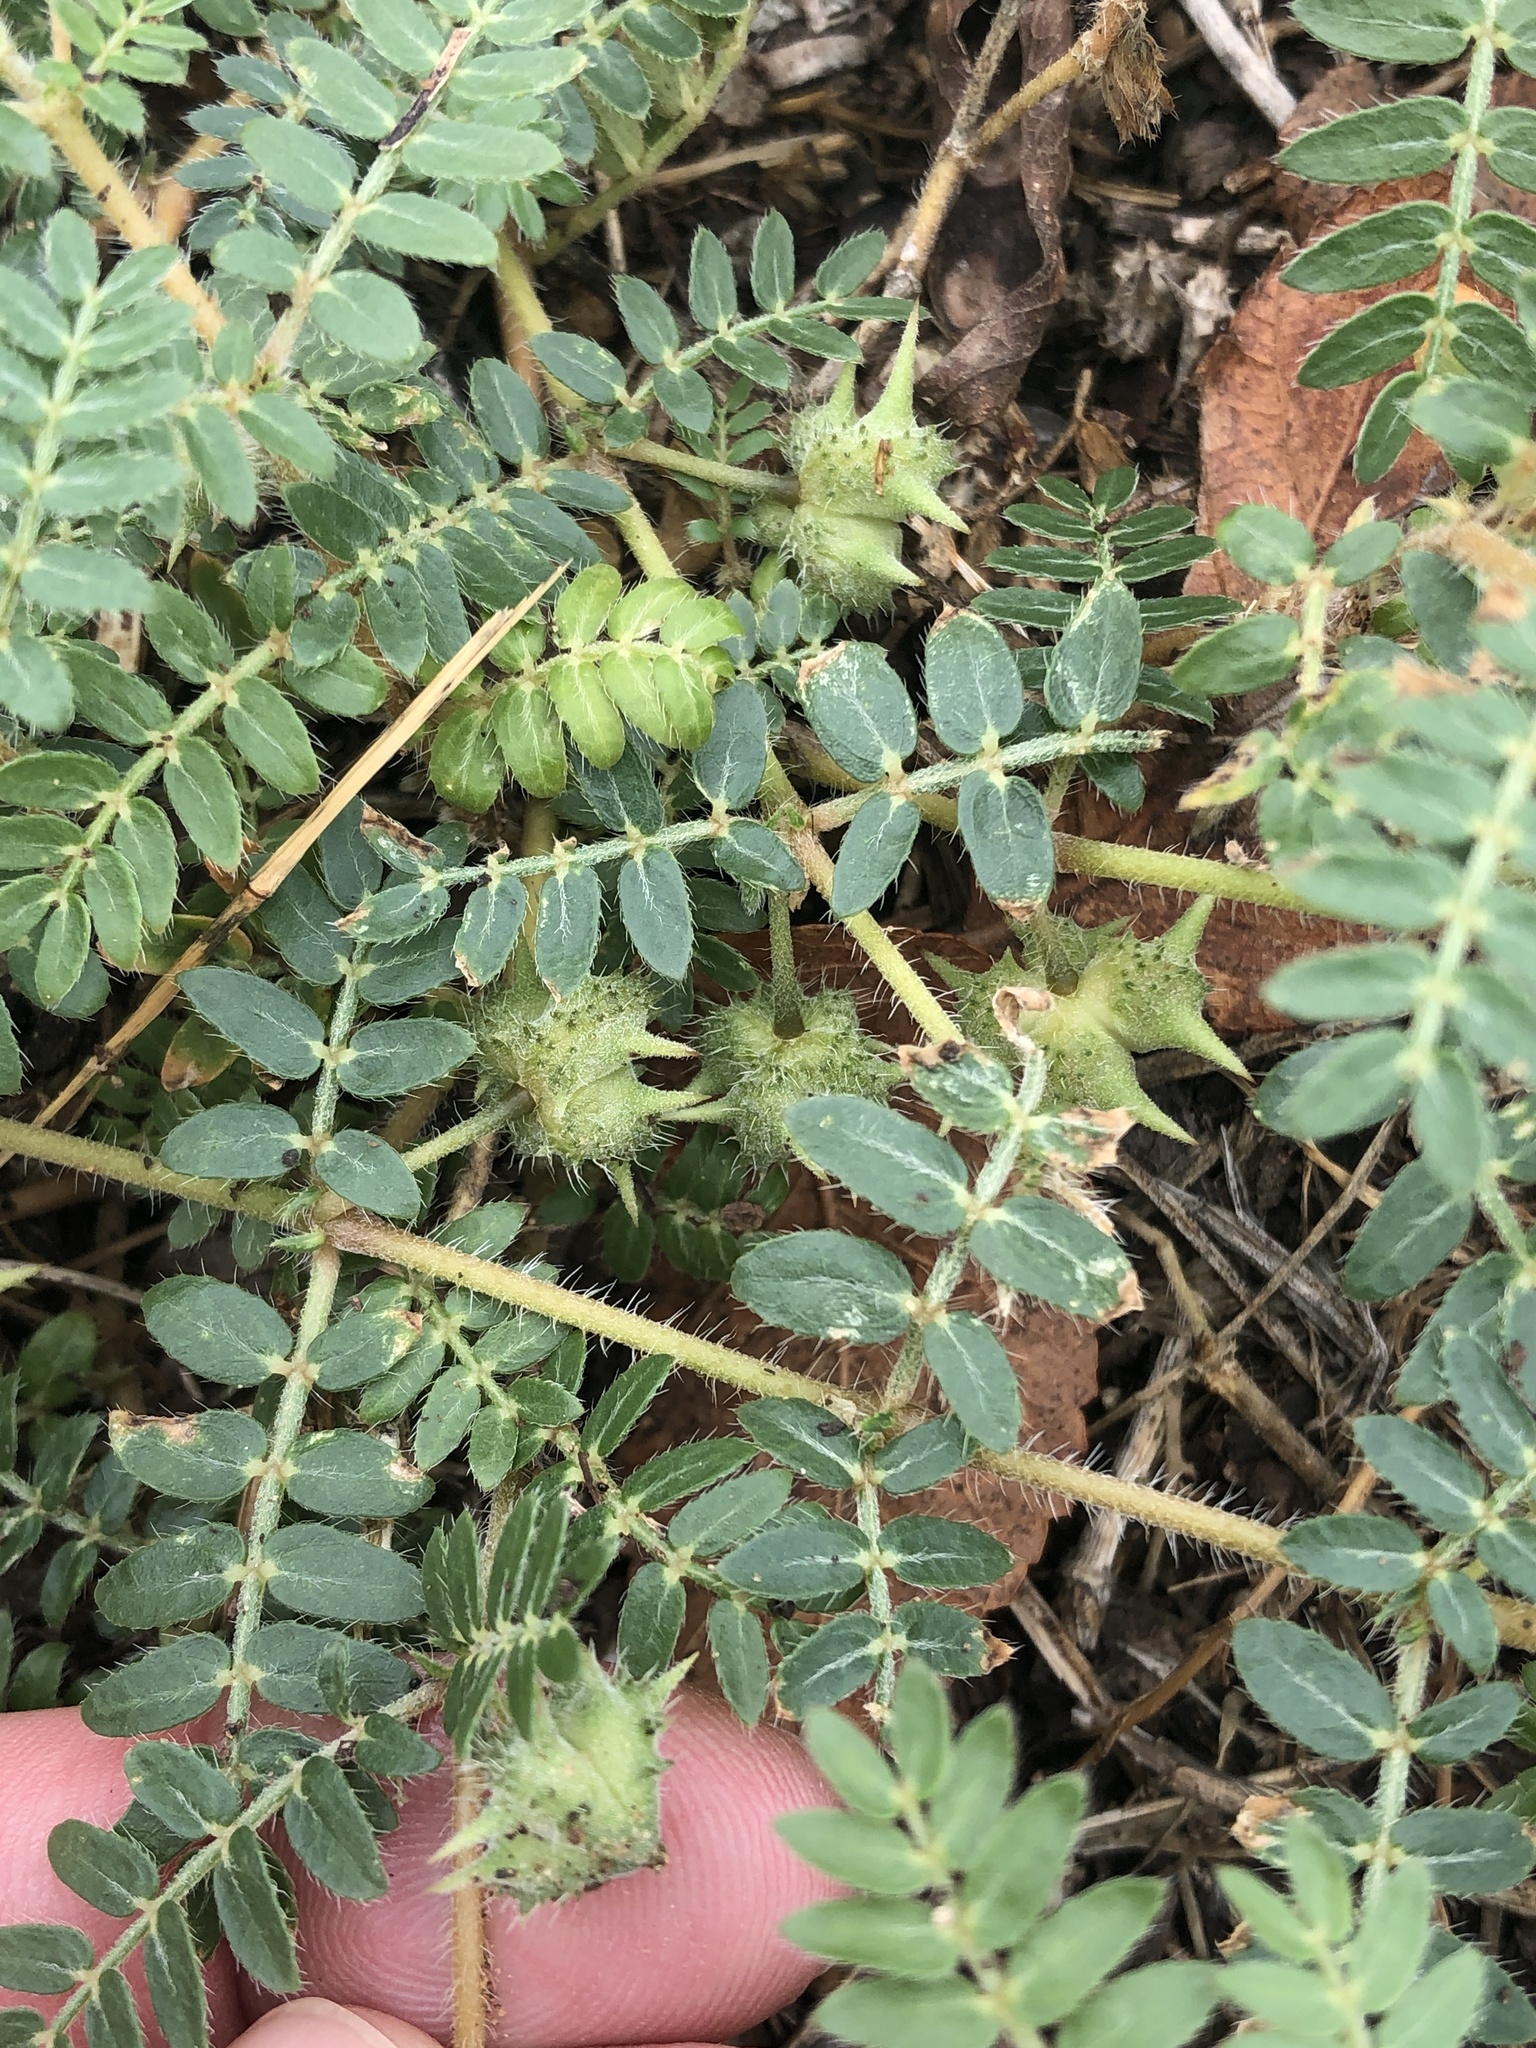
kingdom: Plantae
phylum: Tracheophyta
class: Magnoliopsida
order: Zygophyllales
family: Zygophyllaceae
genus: Tribulus
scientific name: Tribulus terrestris
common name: Puncturevine
